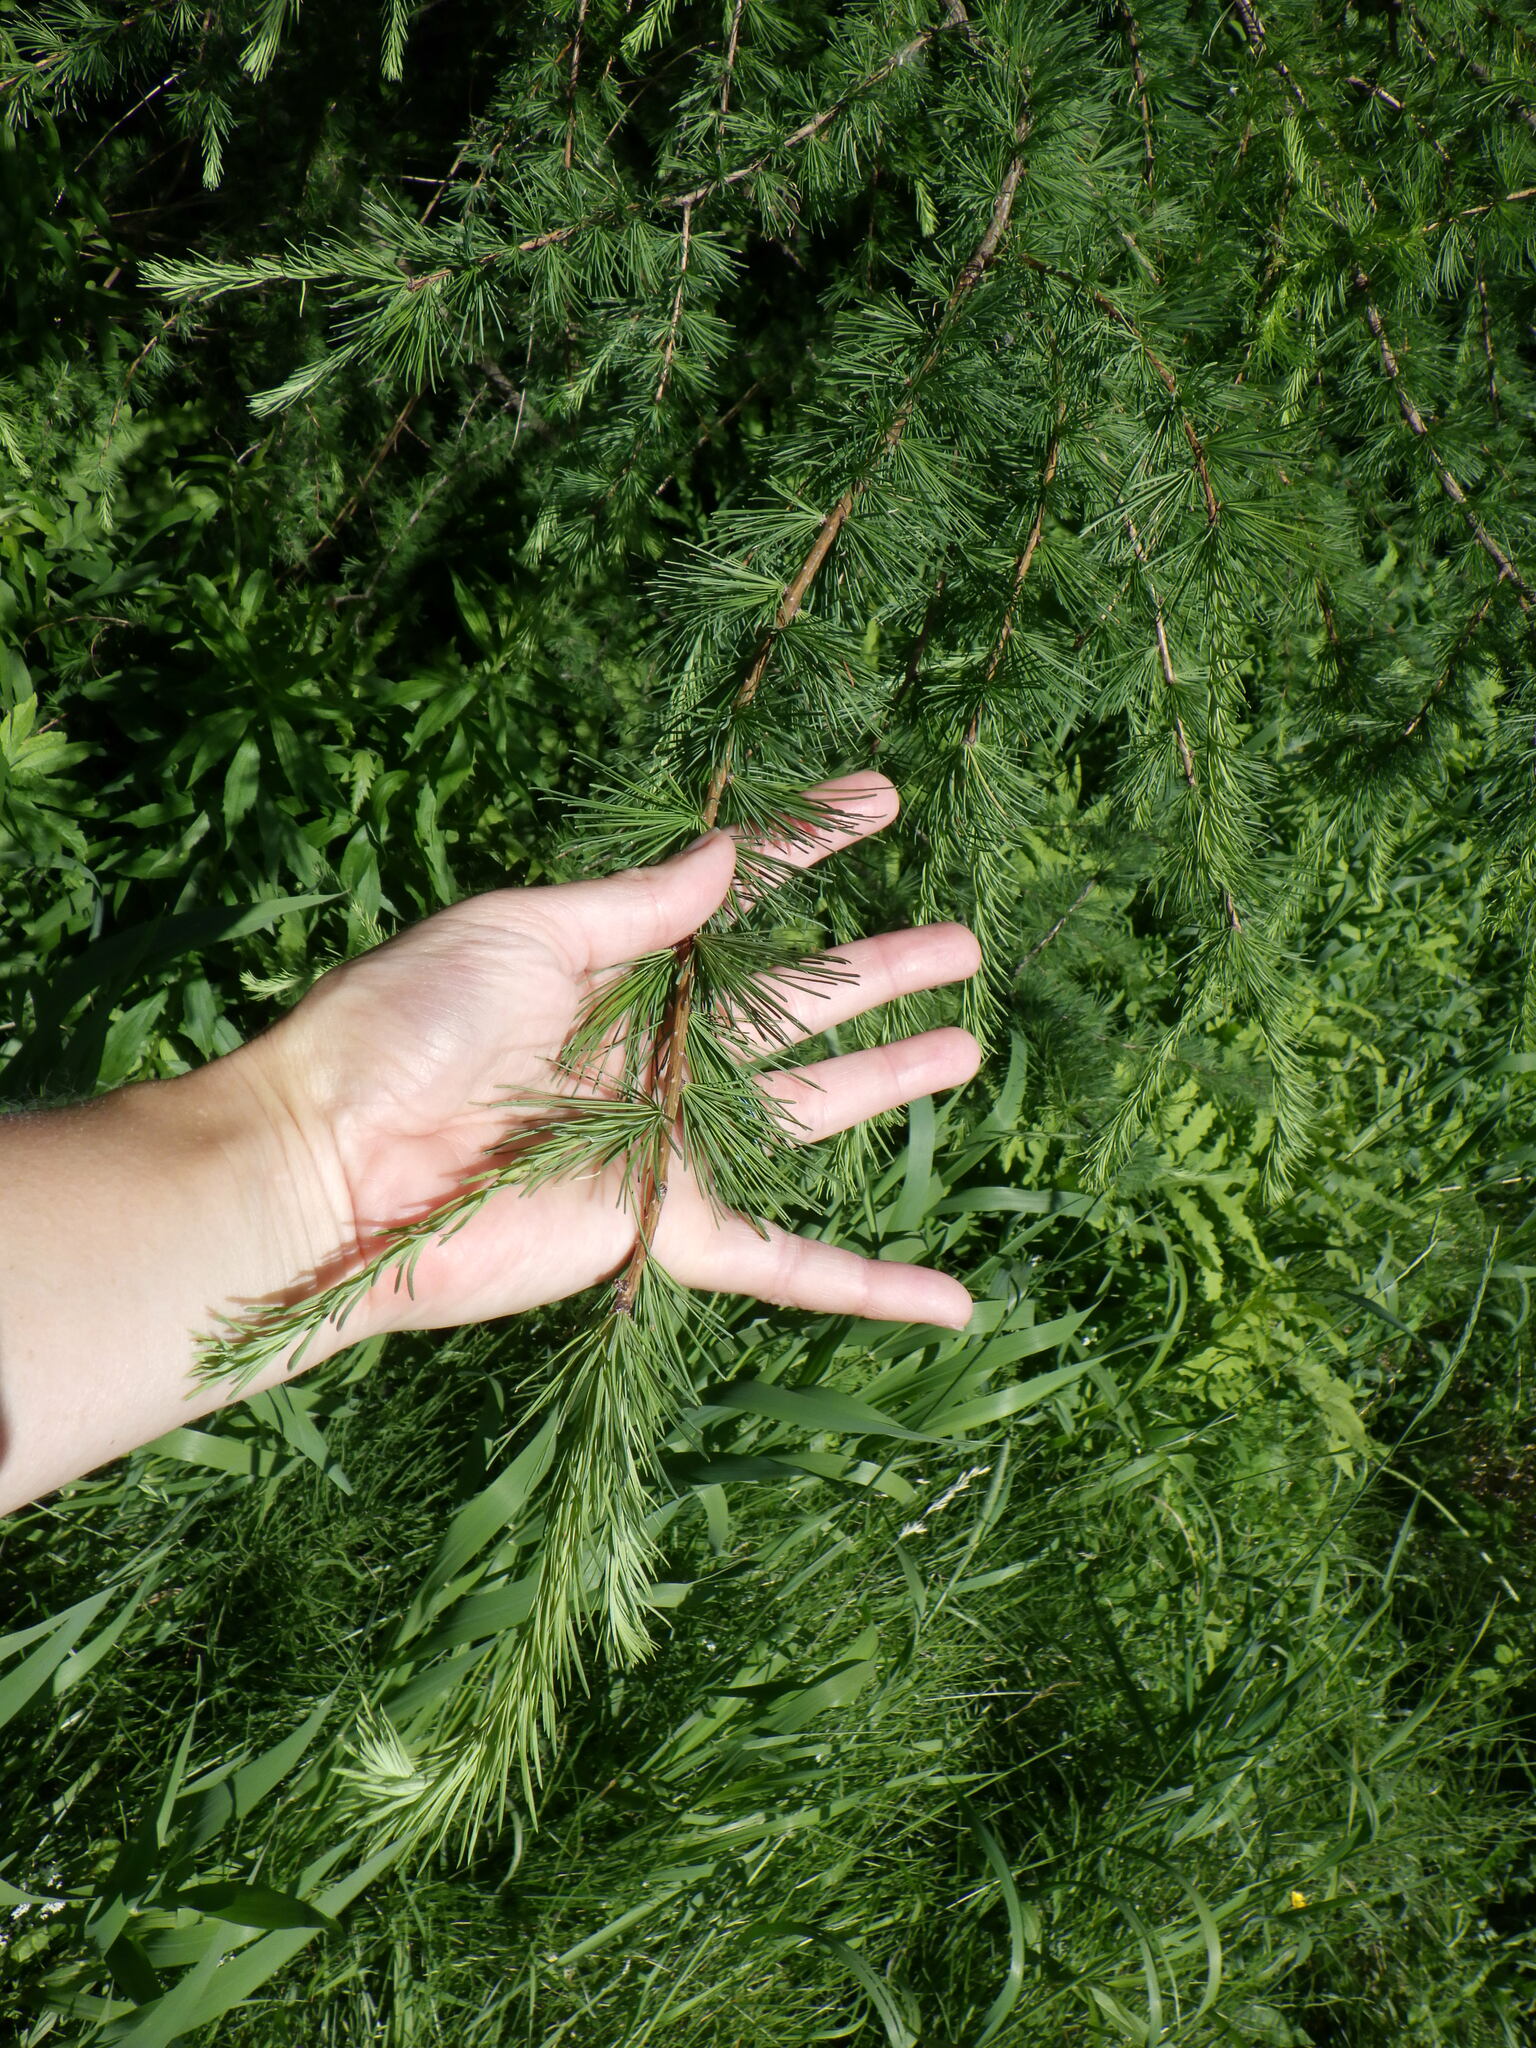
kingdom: Plantae
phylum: Tracheophyta
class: Pinopsida
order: Pinales
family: Pinaceae
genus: Larix
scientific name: Larix laricina
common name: American larch
